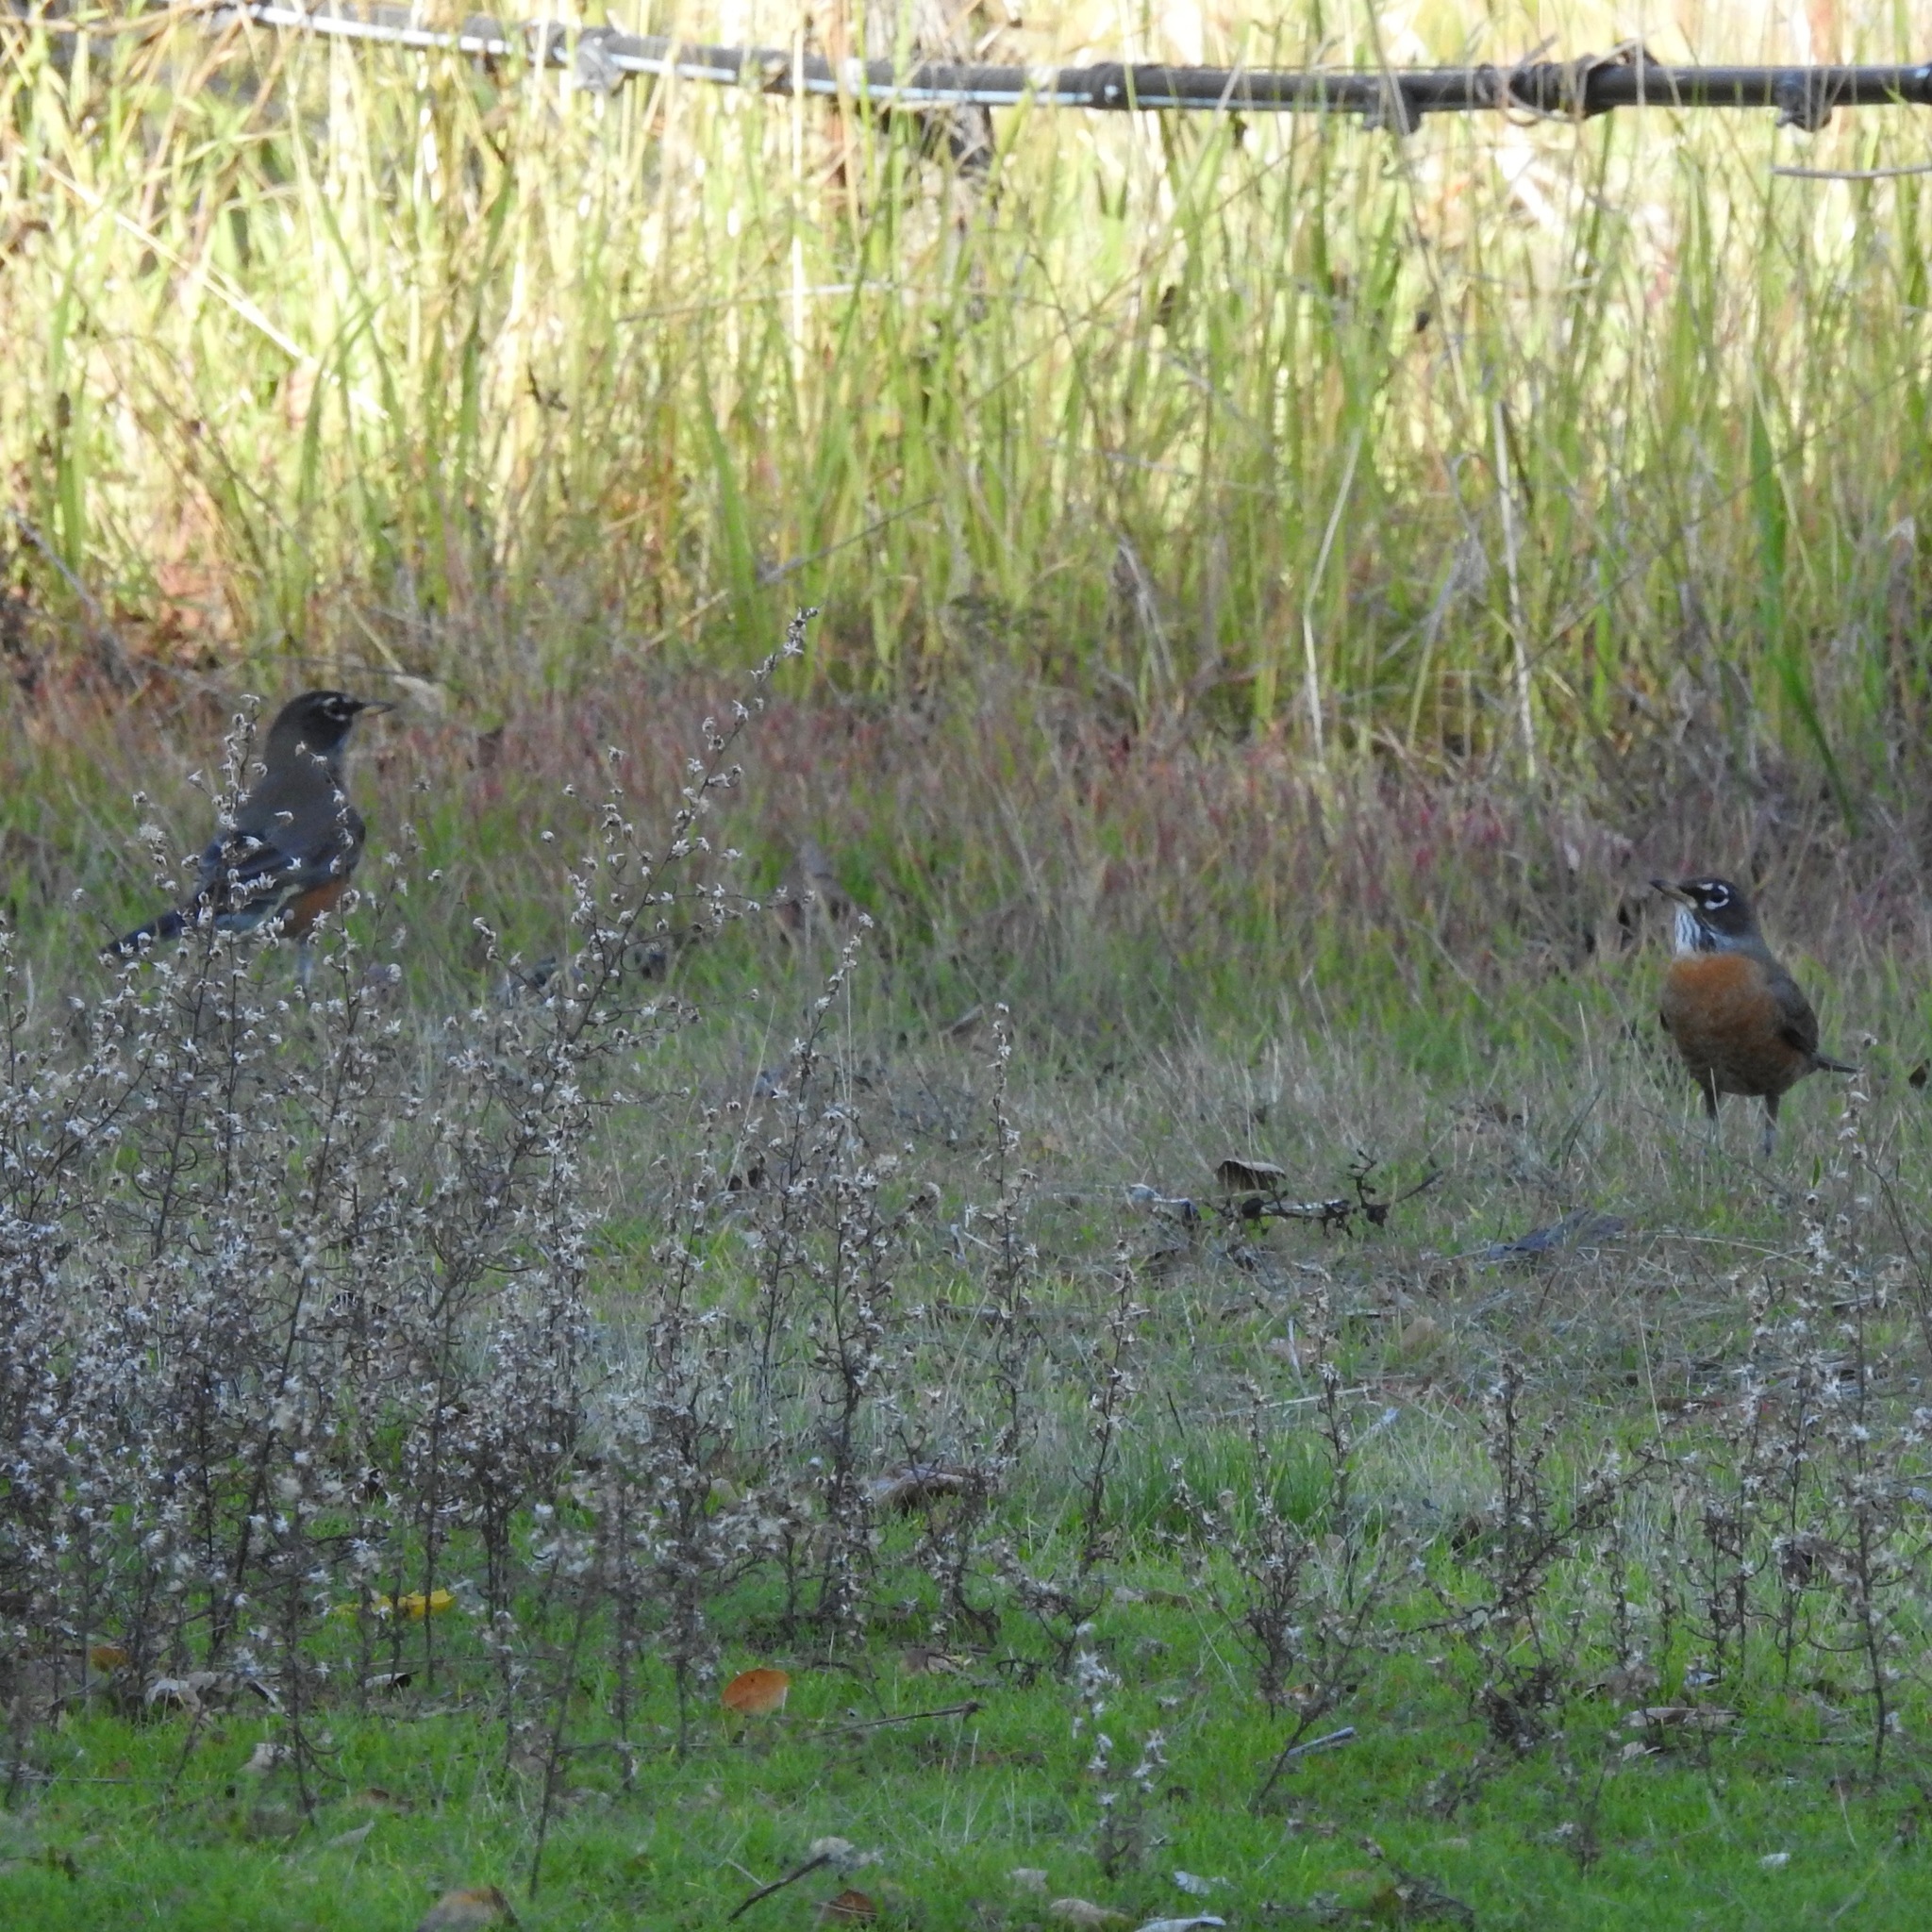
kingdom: Animalia
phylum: Chordata
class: Aves
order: Passeriformes
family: Turdidae
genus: Turdus
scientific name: Turdus migratorius
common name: American robin
